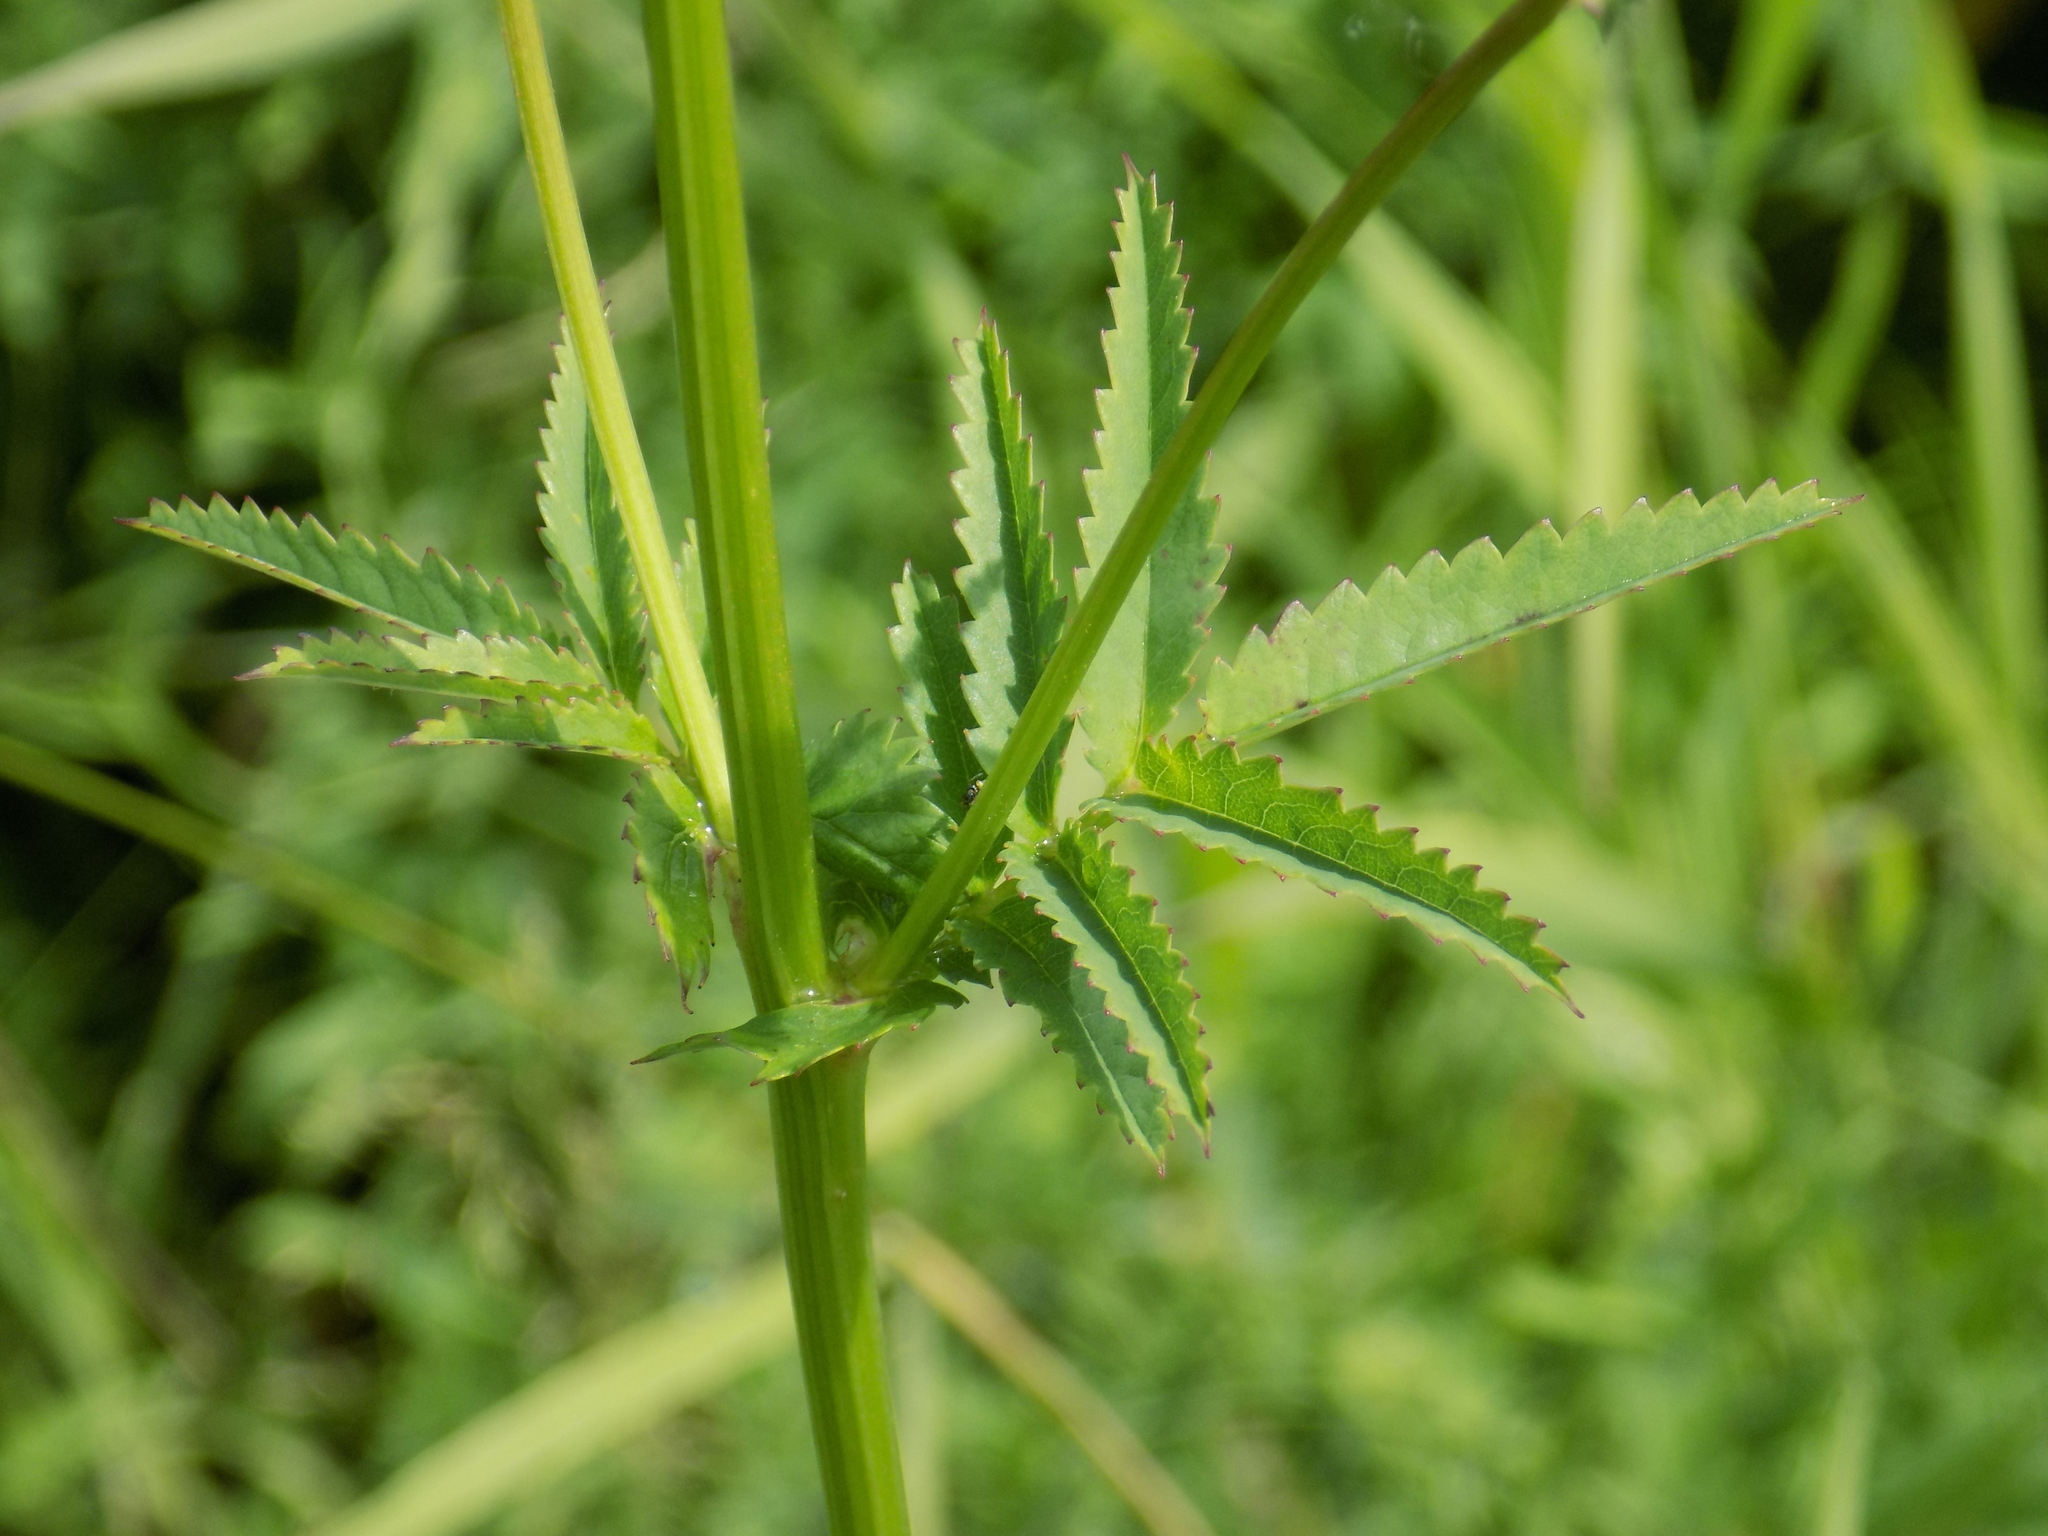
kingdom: Plantae
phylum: Tracheophyta
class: Magnoliopsida
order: Rosales
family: Rosaceae
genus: Sanguisorba
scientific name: Sanguisorba officinalis
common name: Great burnet
